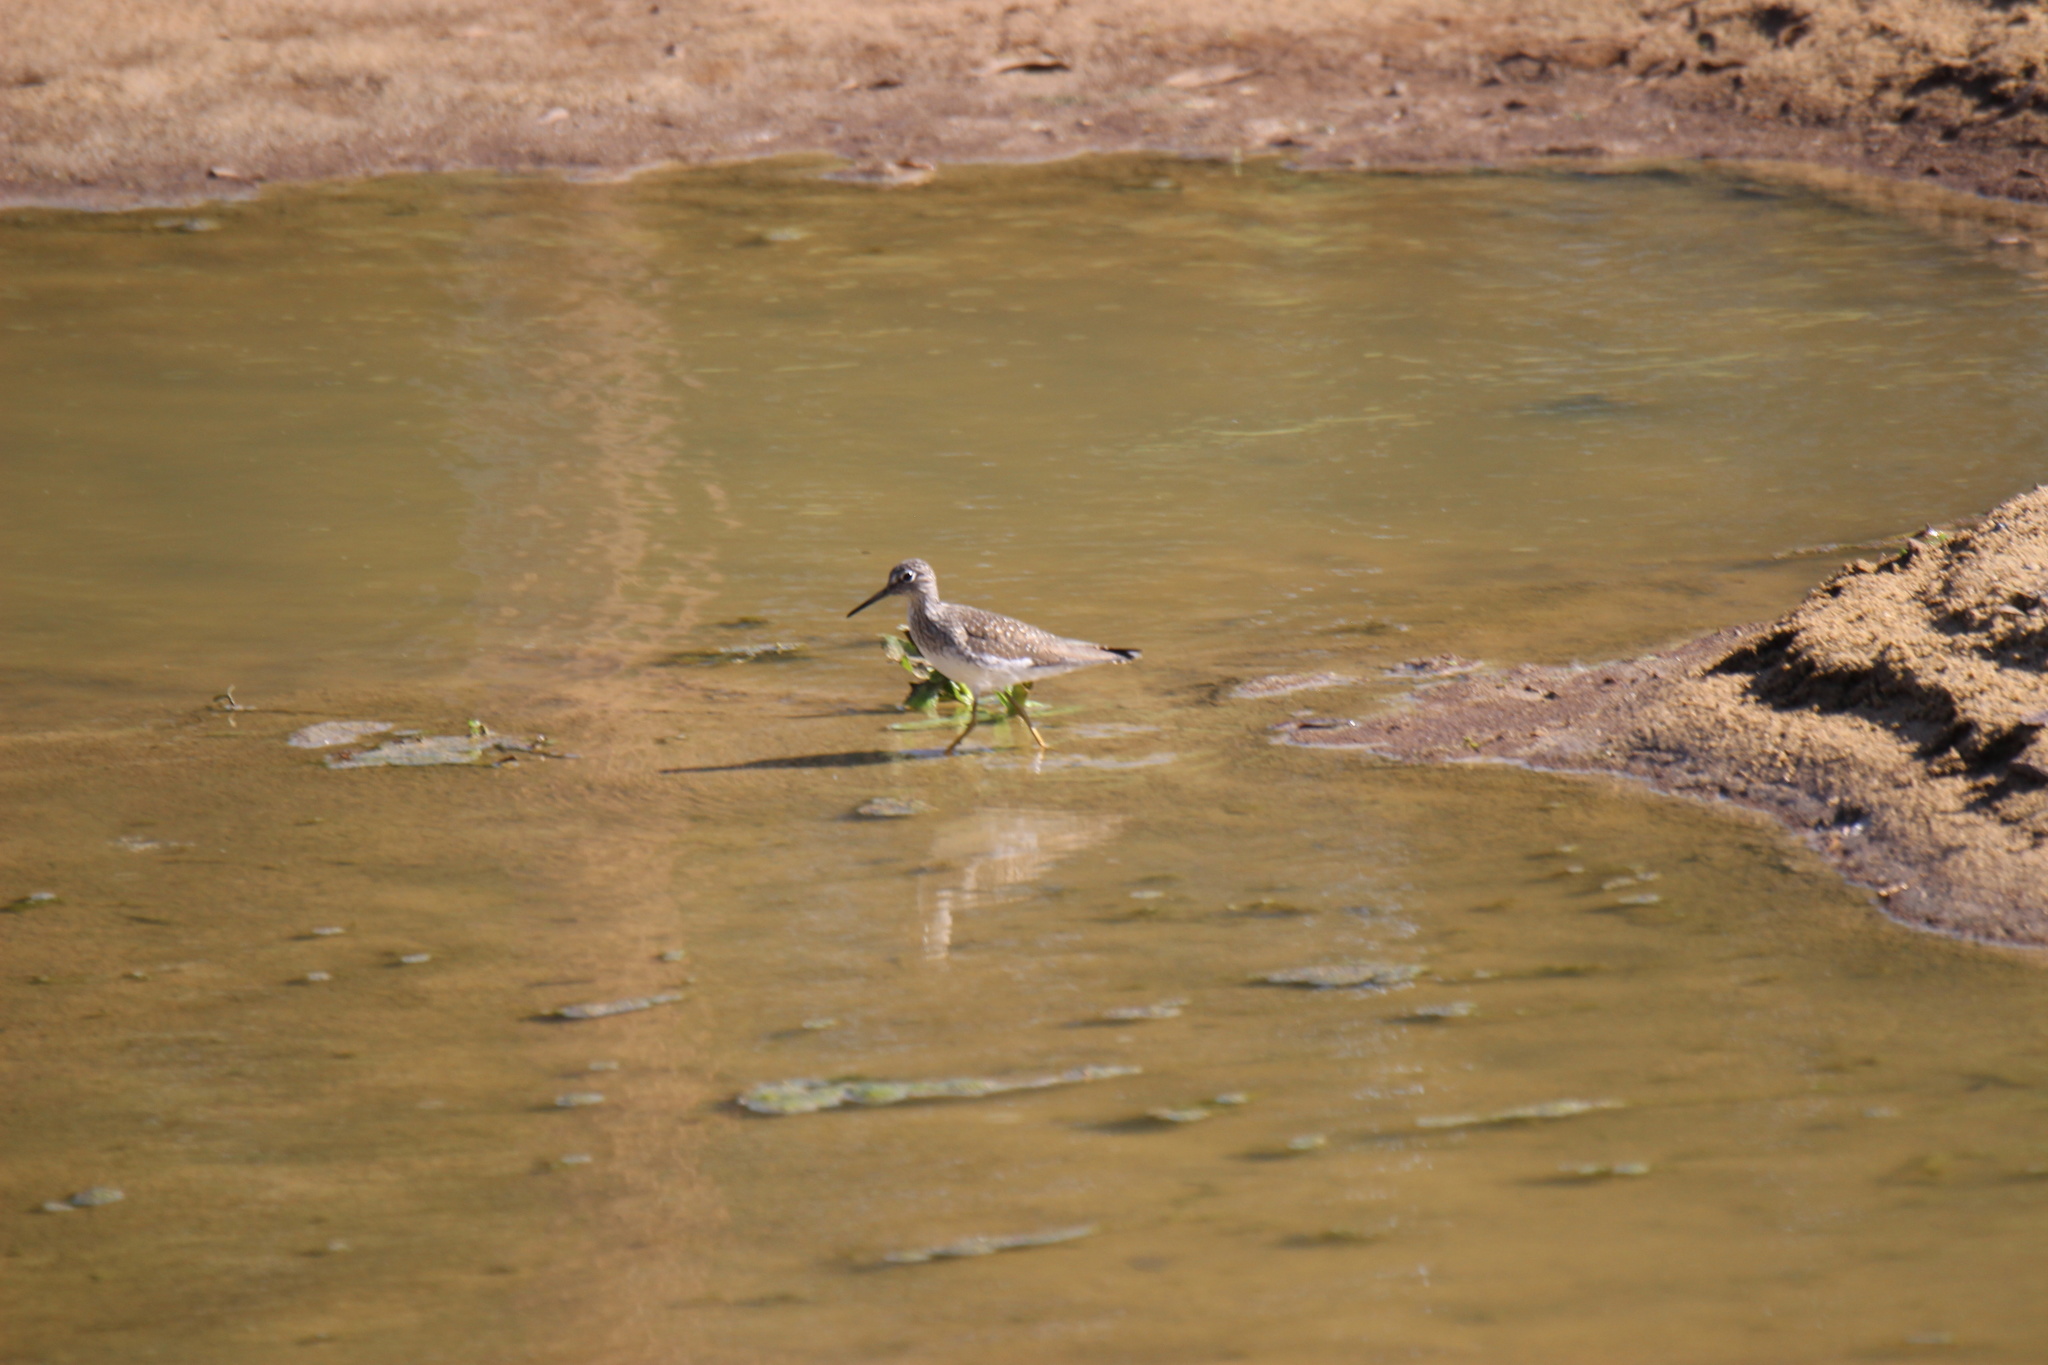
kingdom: Animalia
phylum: Chordata
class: Aves
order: Charadriiformes
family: Scolopacidae
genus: Tringa
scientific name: Tringa solitaria
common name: Solitary sandpiper
